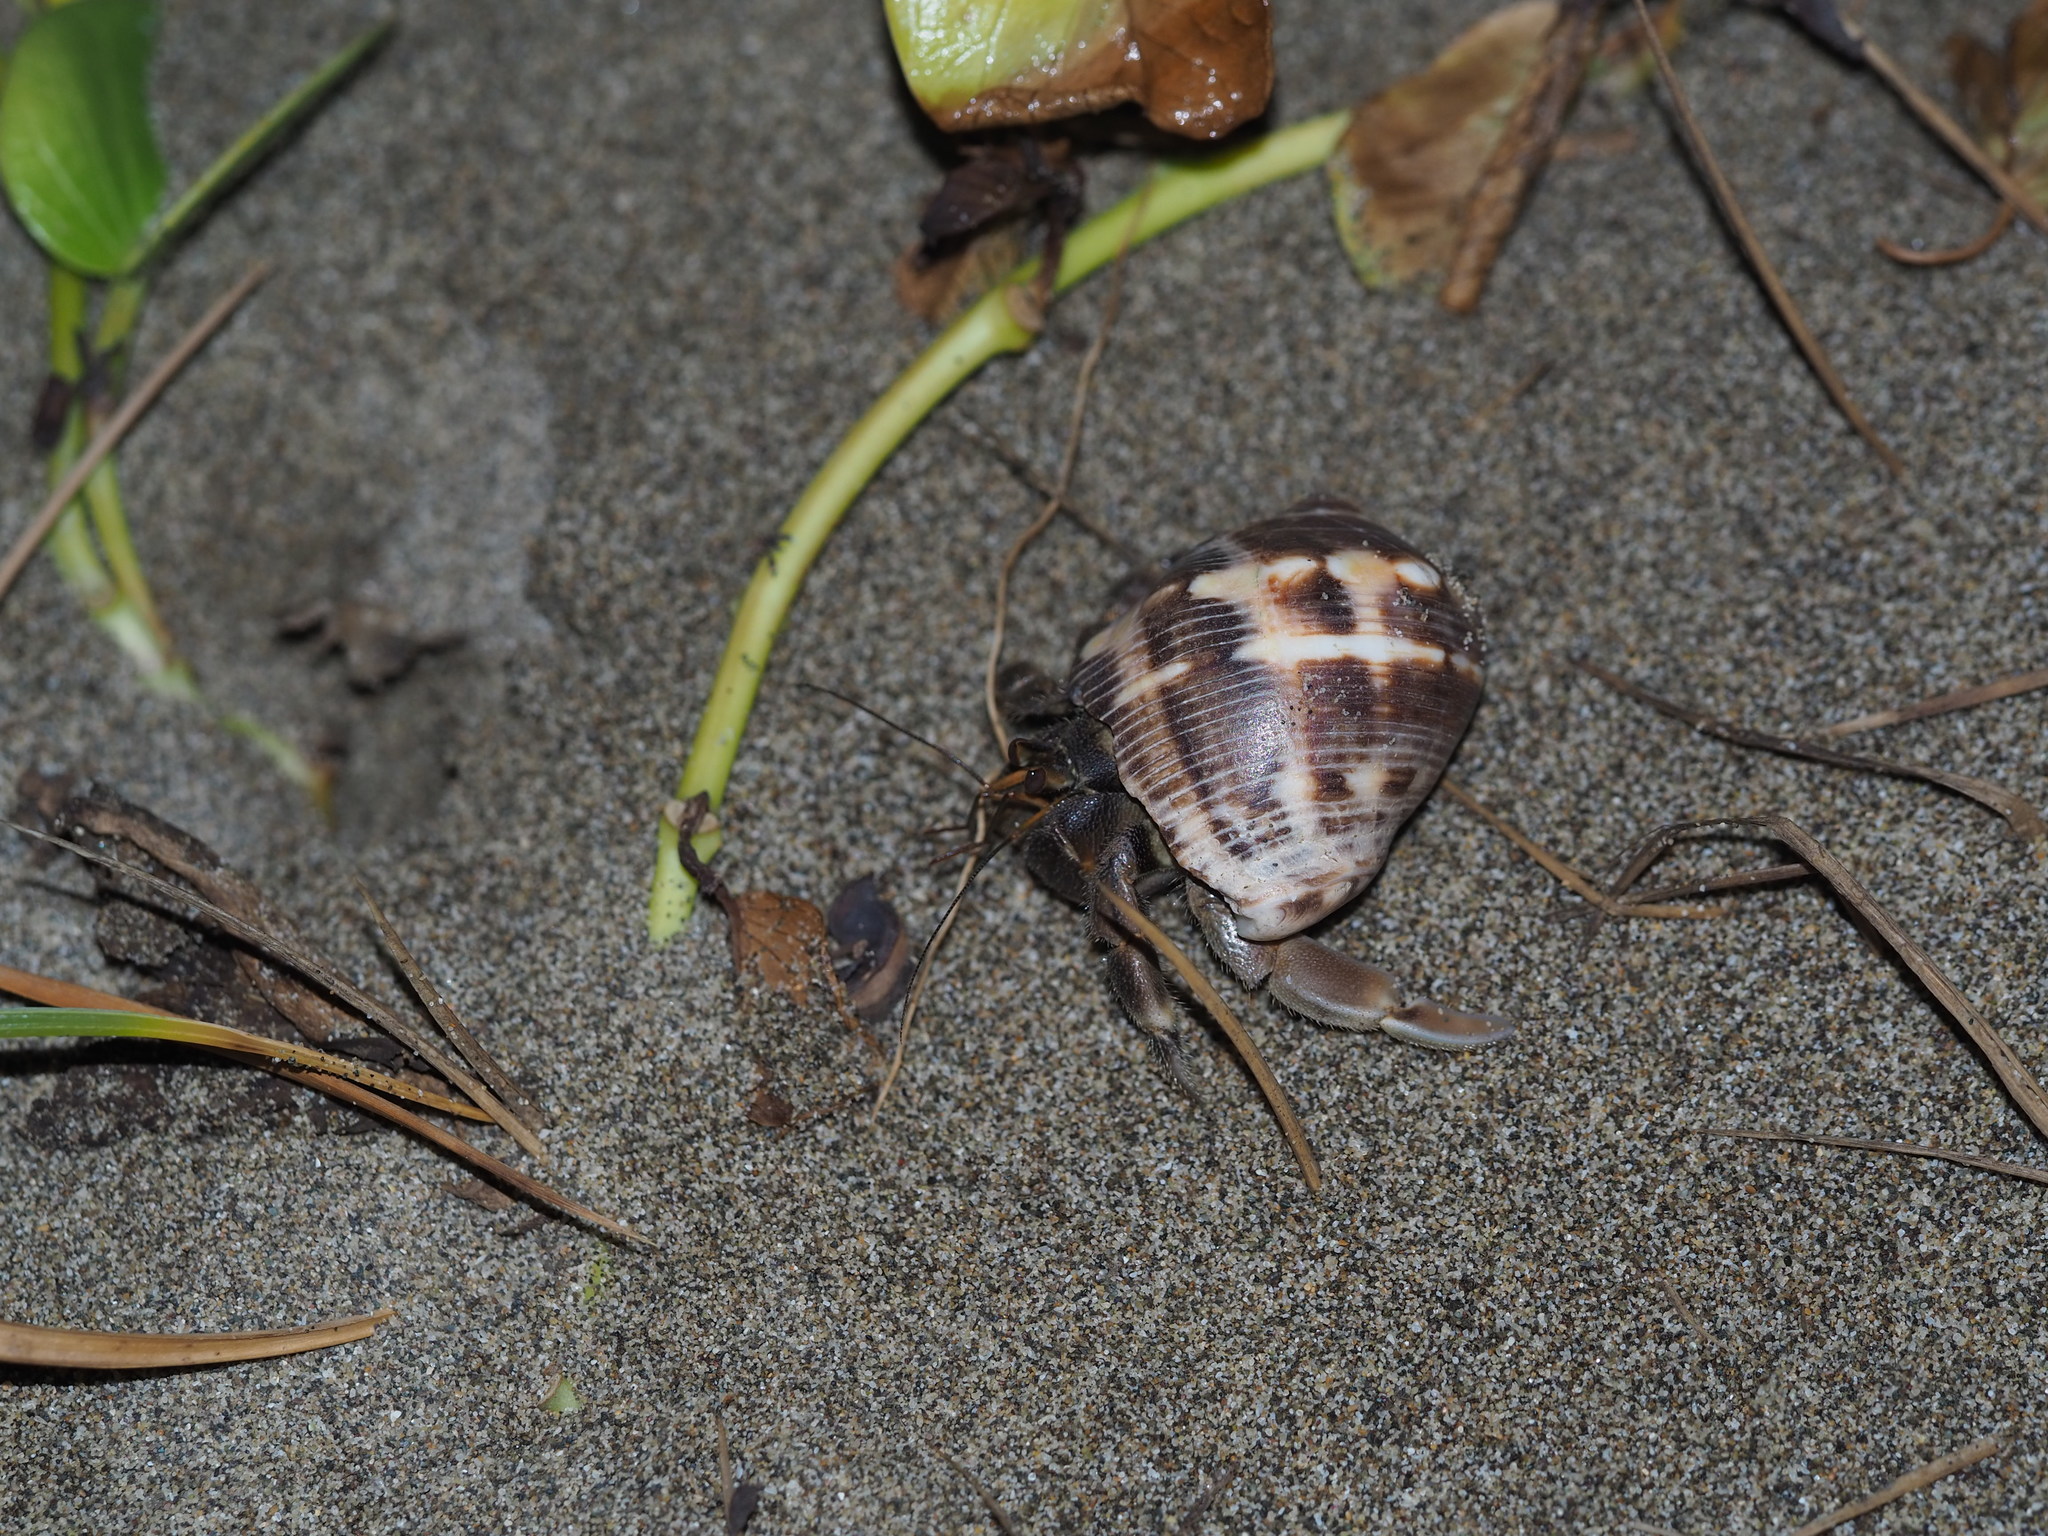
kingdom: Animalia
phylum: Arthropoda
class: Malacostraca
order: Decapoda
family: Coenobitidae
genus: Coenobita
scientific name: Coenobita rugosus
